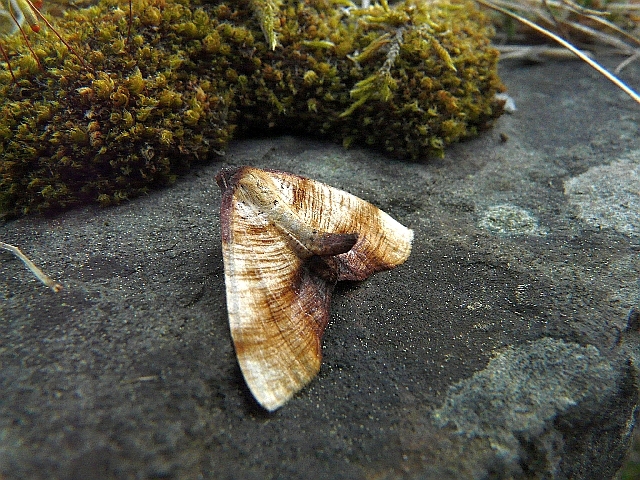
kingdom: Animalia
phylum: Arthropoda
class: Insecta
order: Lepidoptera
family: Geometridae
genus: Plagodis
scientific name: Plagodis dolabraria
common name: Scorched wing
